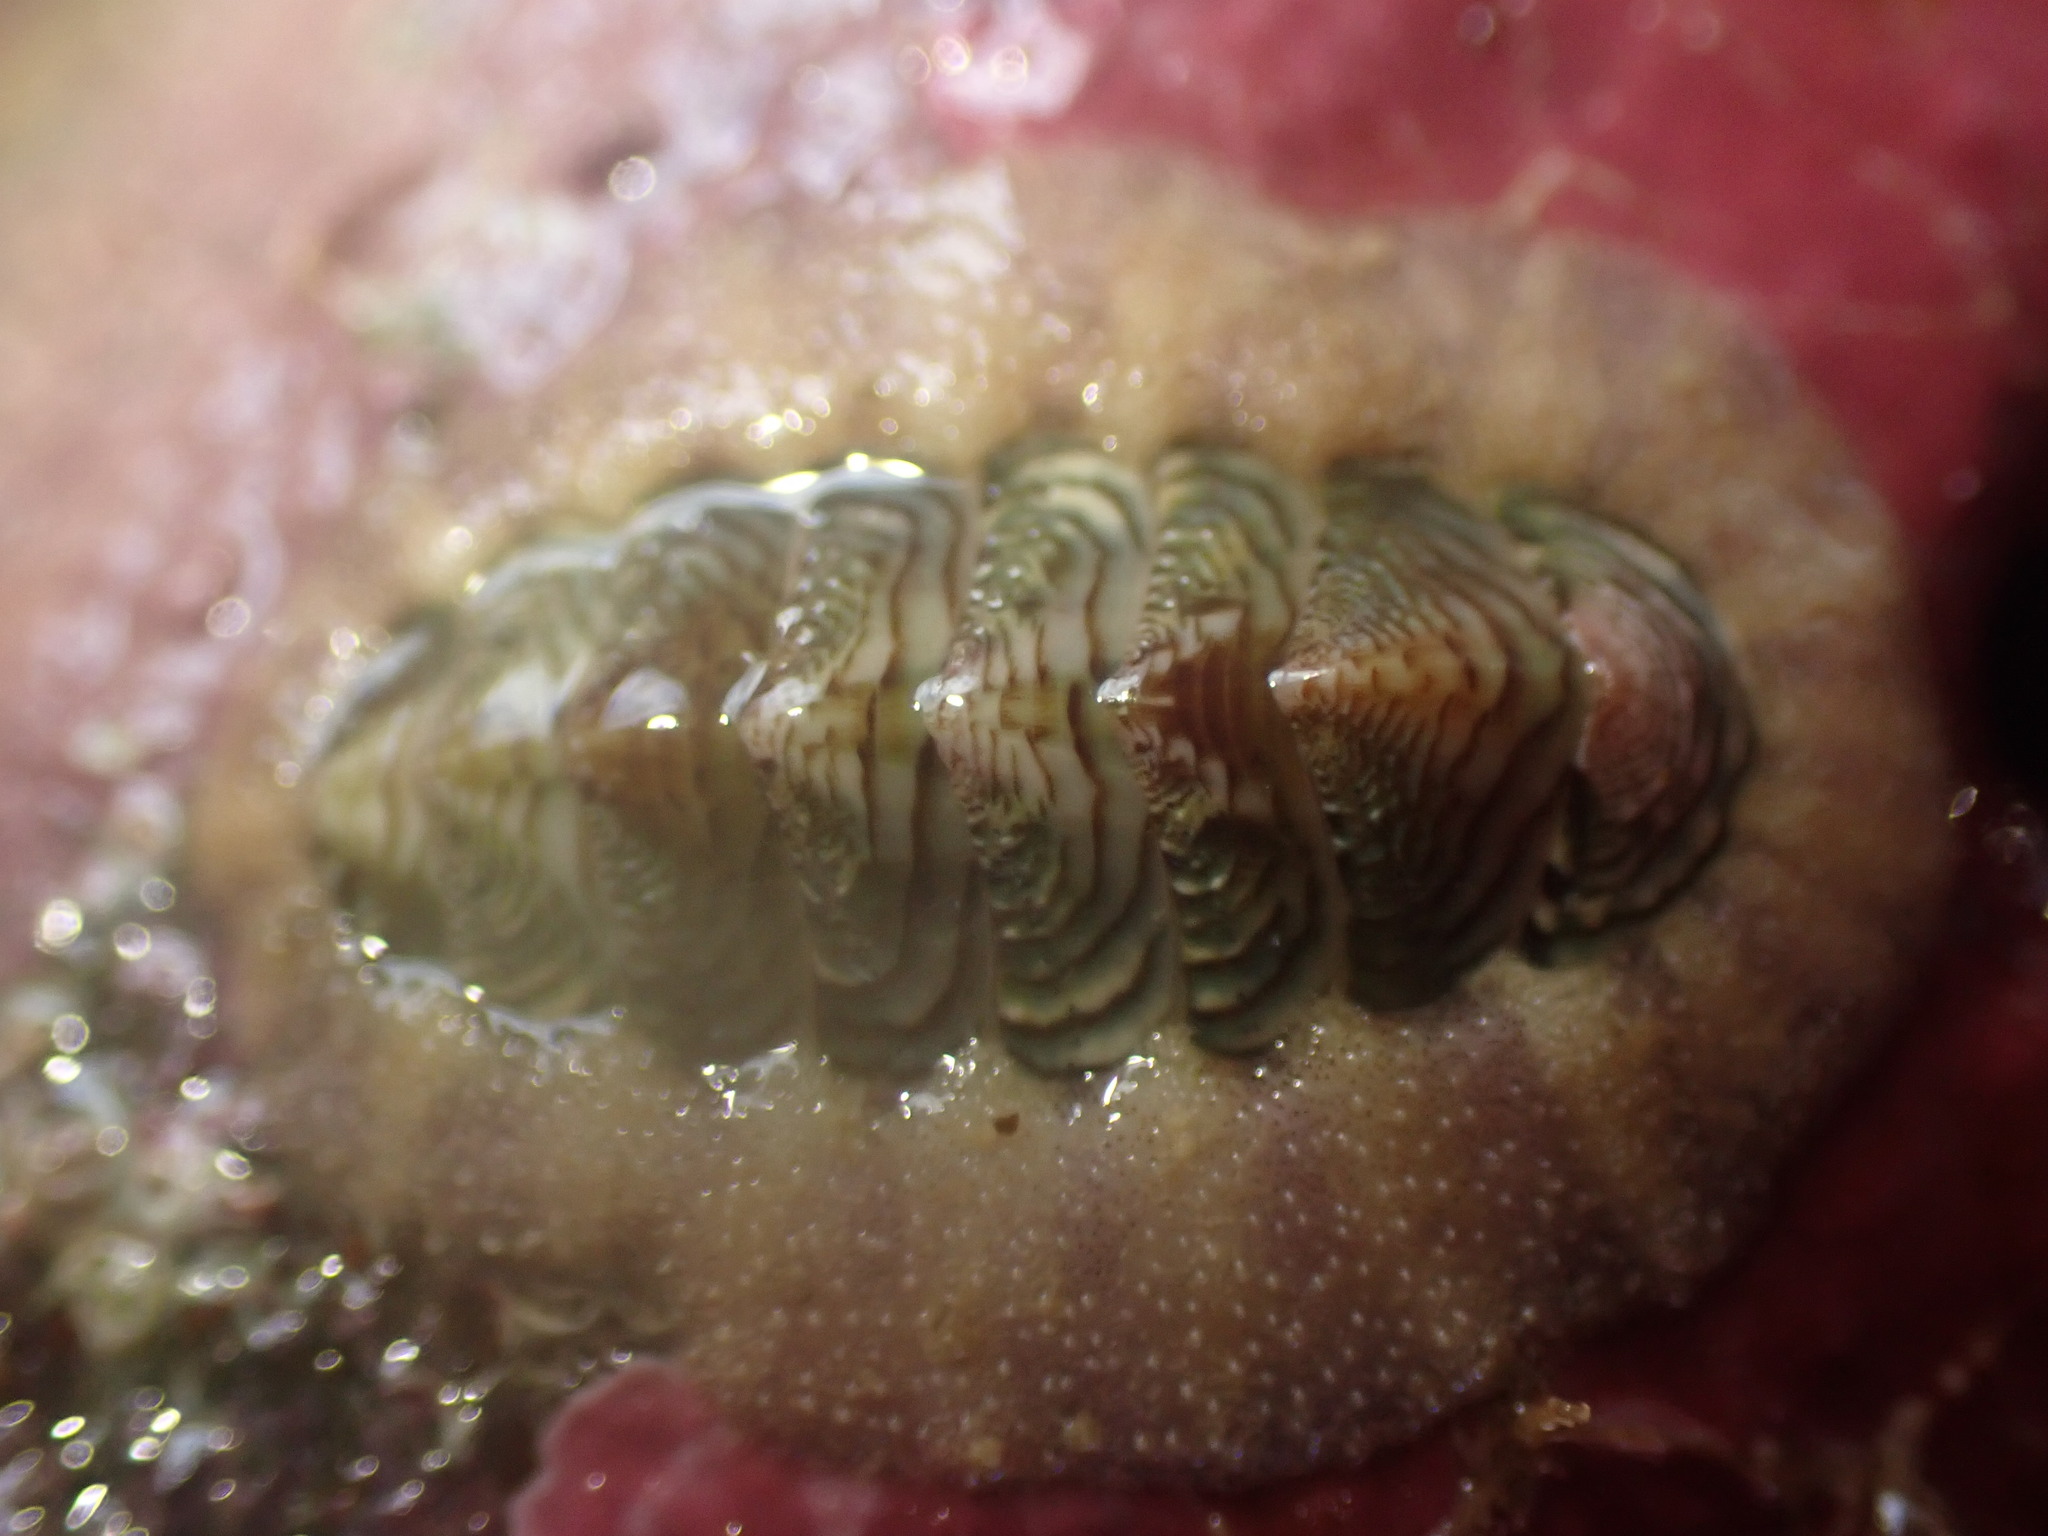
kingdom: Animalia
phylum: Mollusca
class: Polyplacophora
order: Chitonida
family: Chitonidae
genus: Onithochiton
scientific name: Onithochiton neglectus
